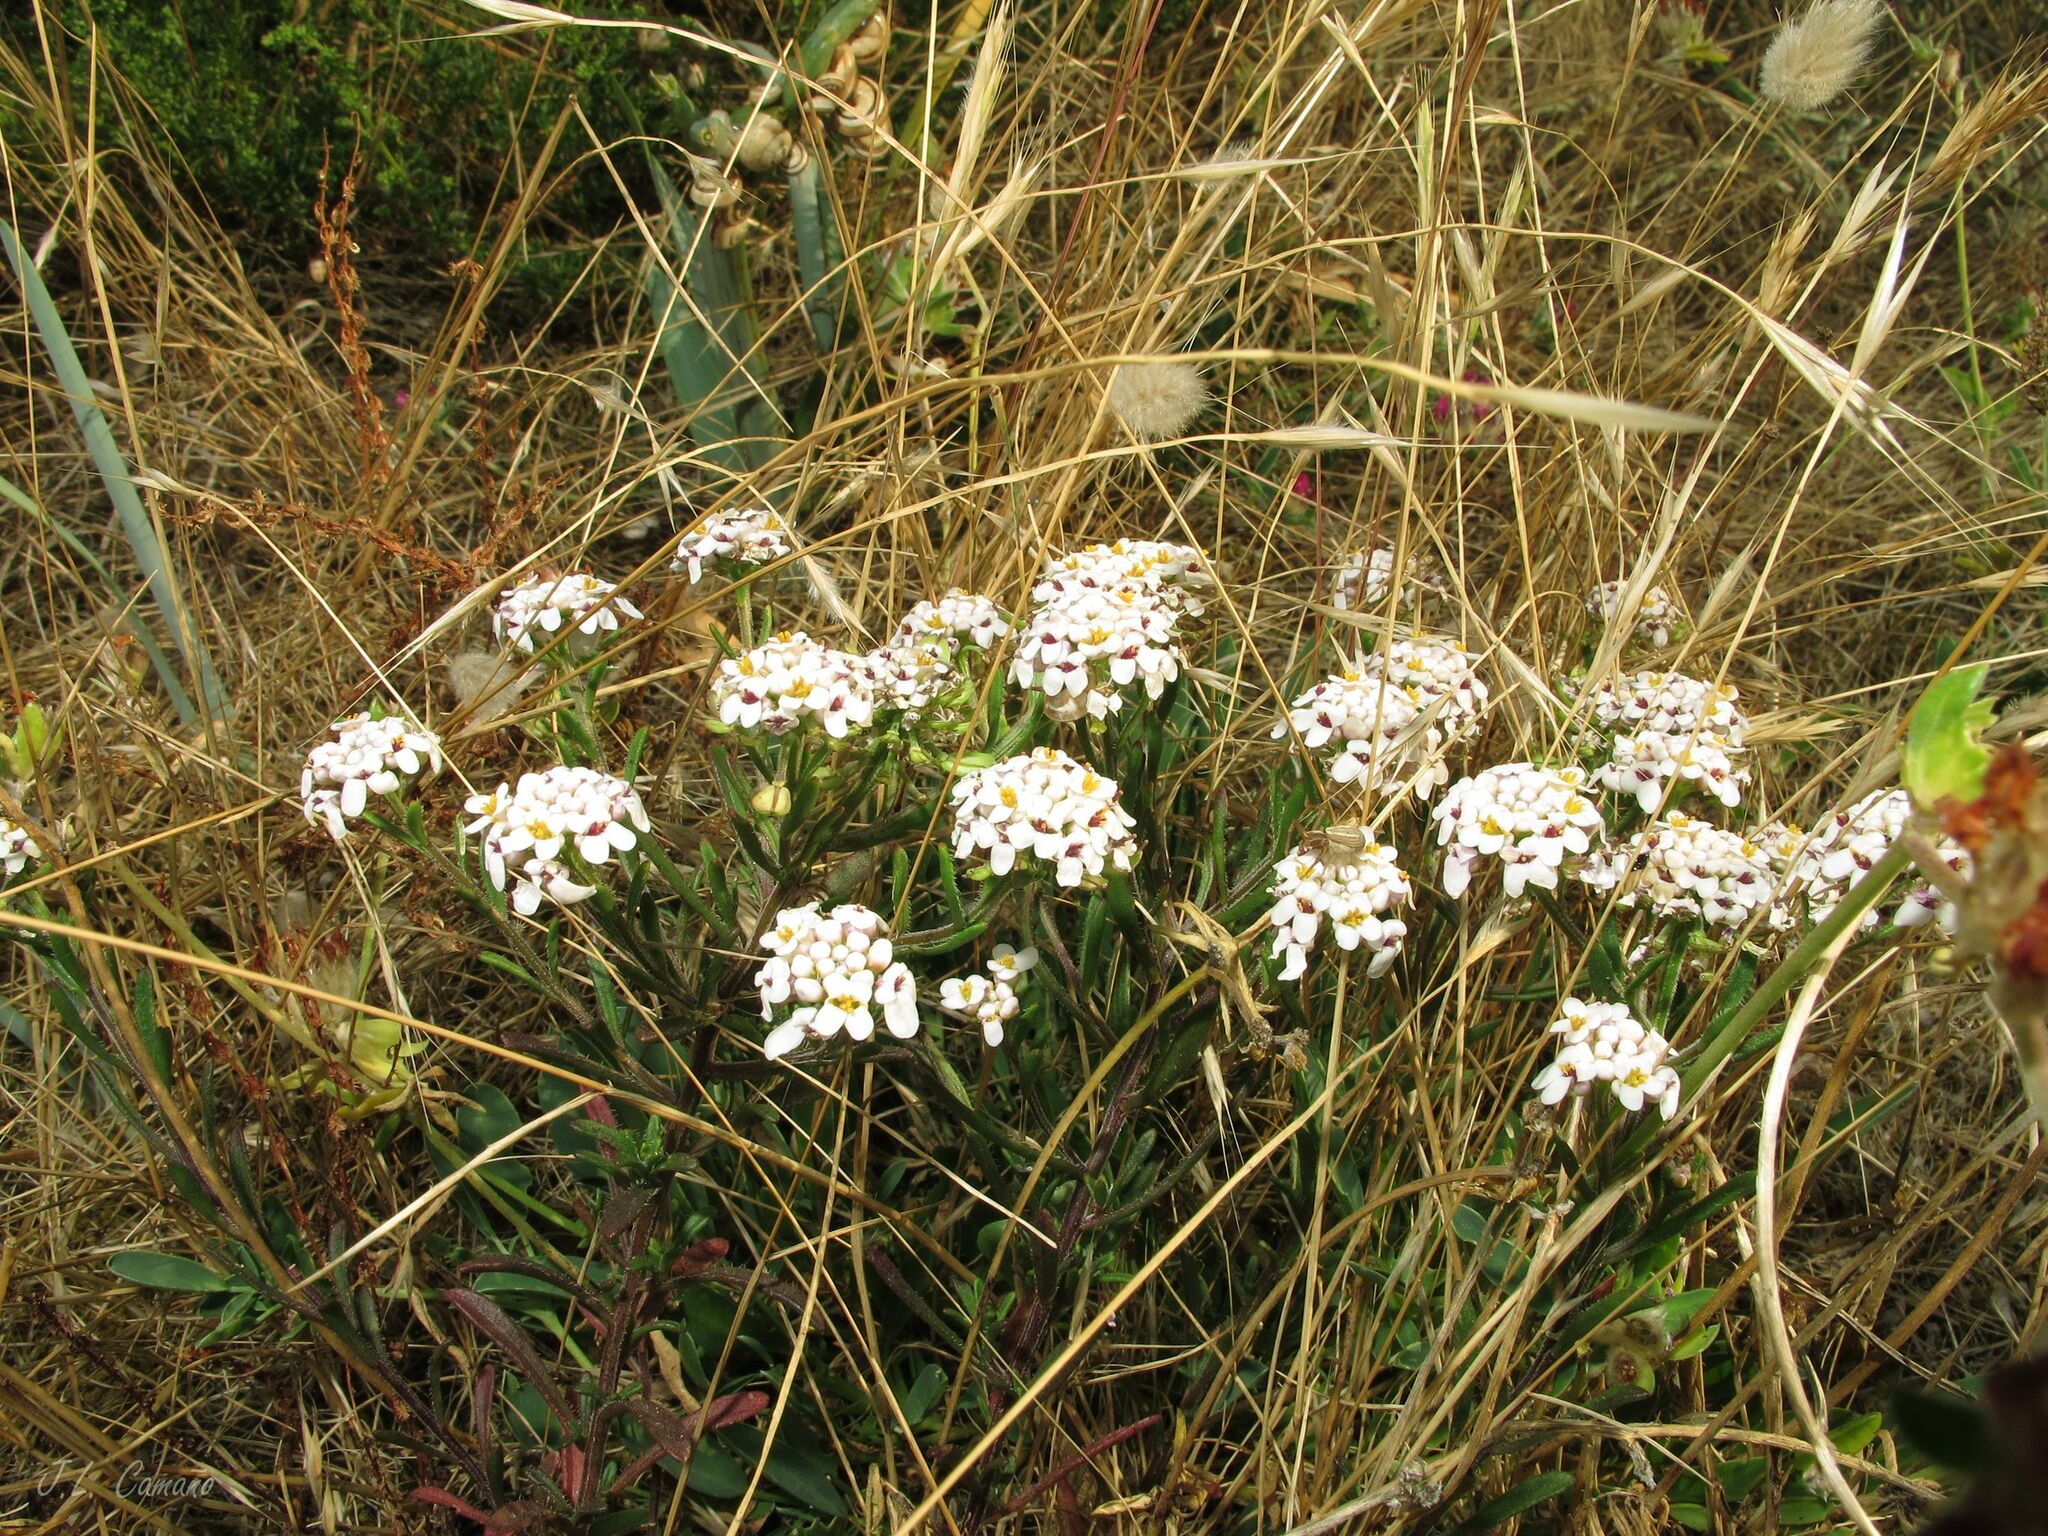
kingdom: Plantae
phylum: Tracheophyta
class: Magnoliopsida
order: Brassicales
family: Brassicaceae
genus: Iberis
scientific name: Iberis procumbens
